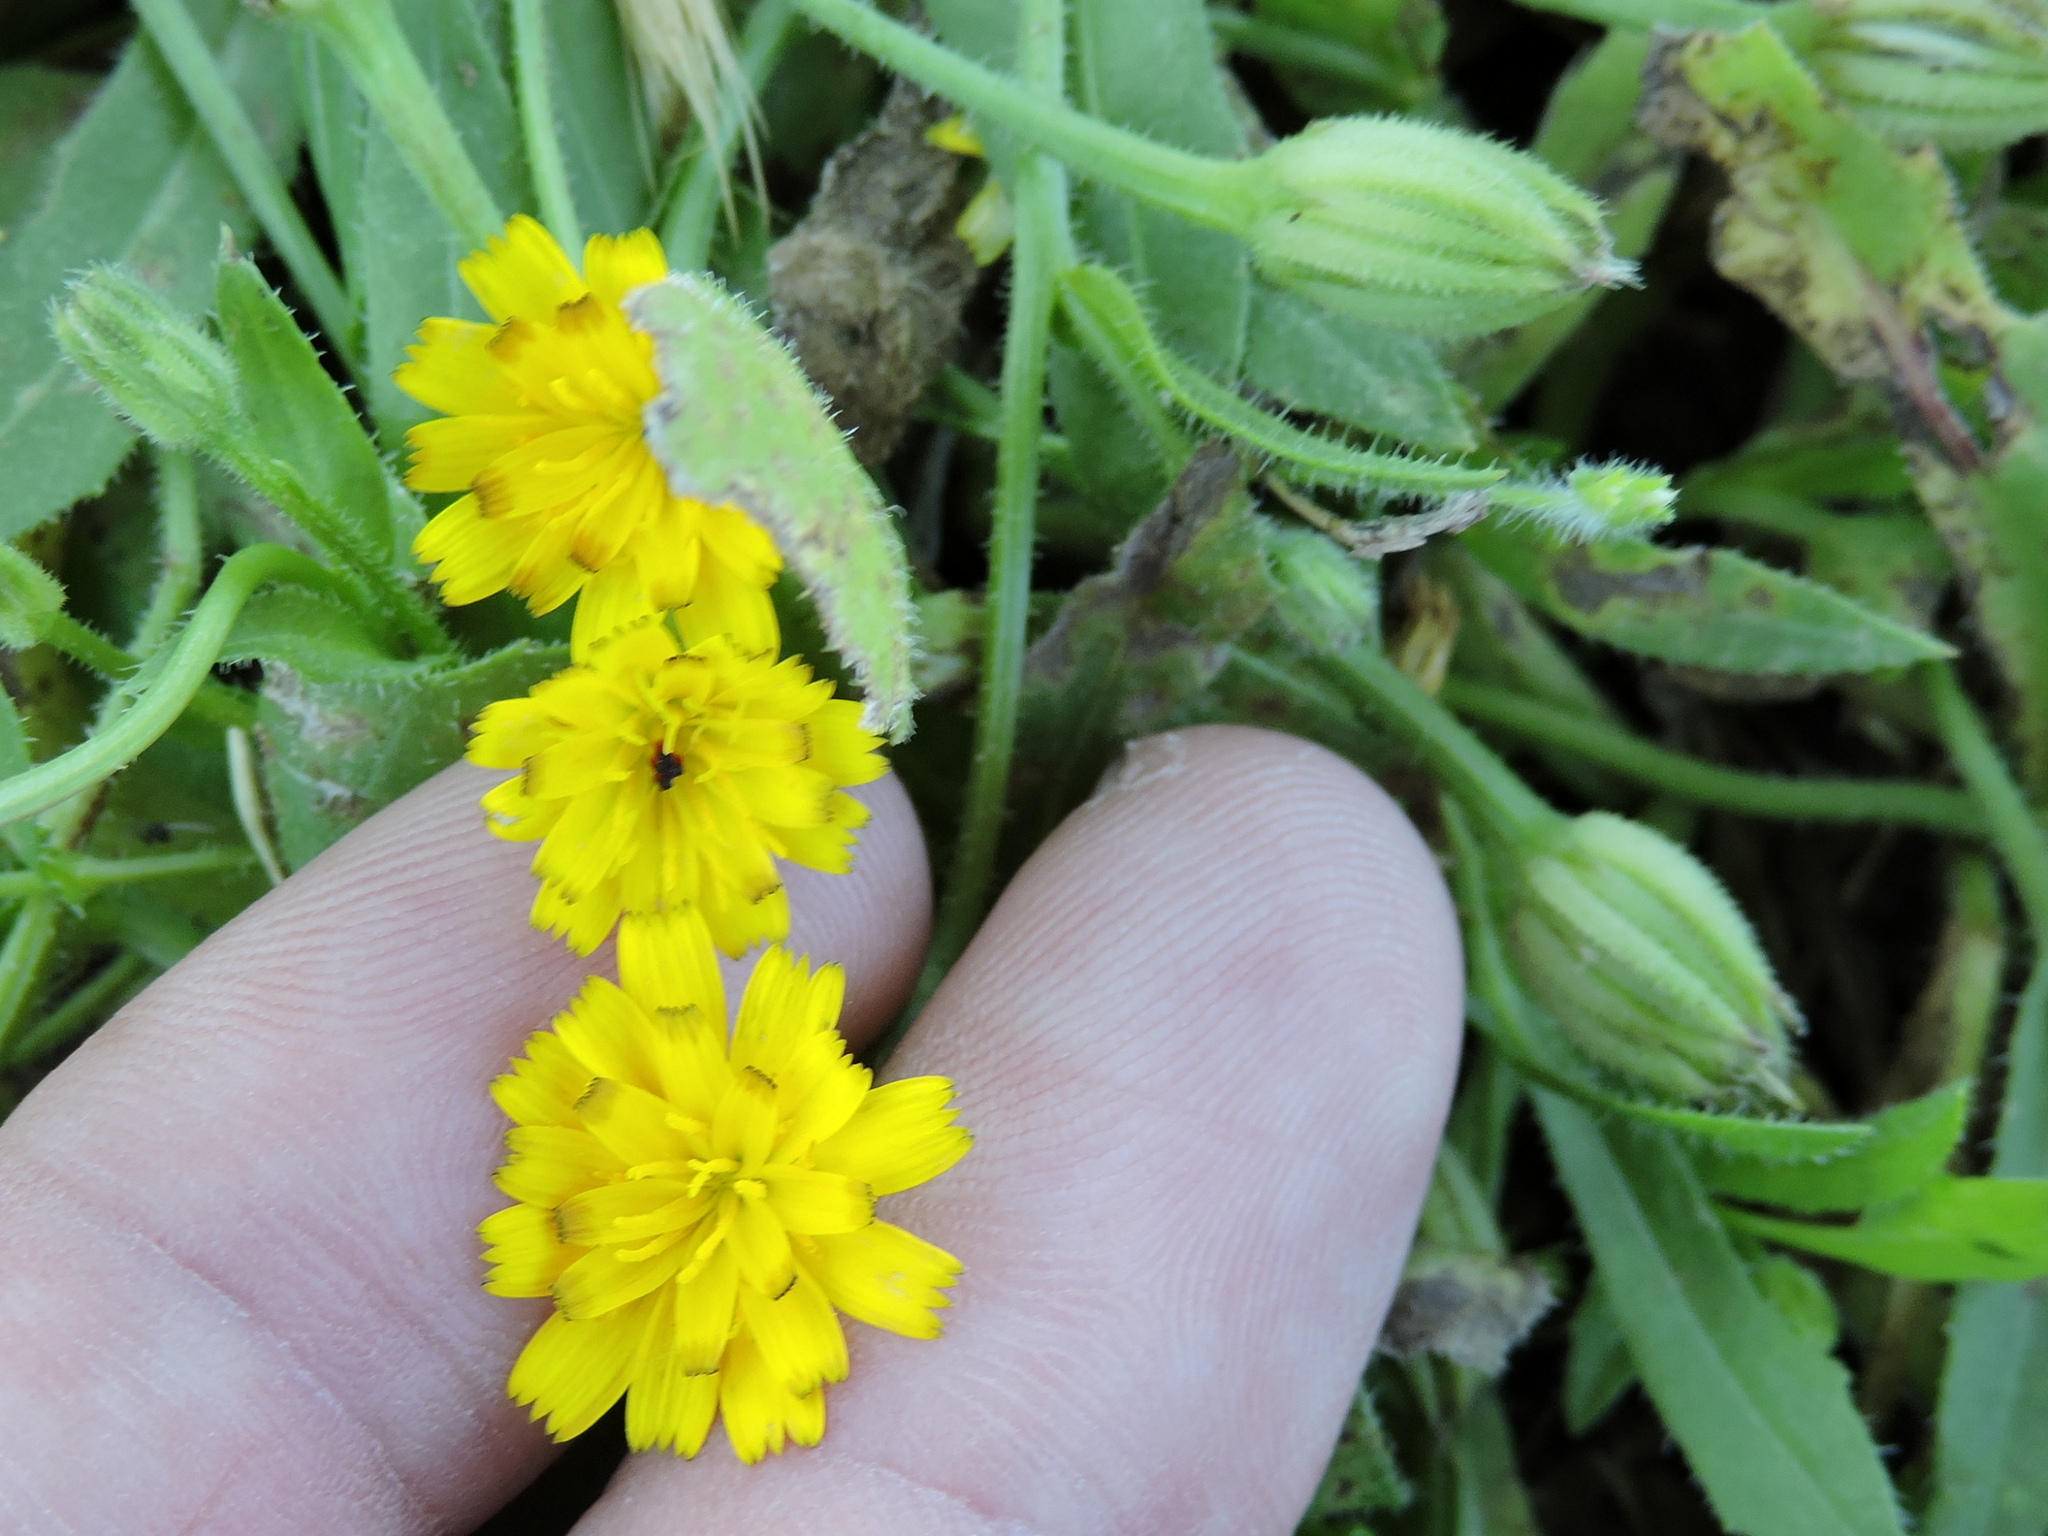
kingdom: Plantae
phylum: Tracheophyta
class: Magnoliopsida
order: Asterales
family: Asteraceae
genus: Hedypnois
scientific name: Hedypnois rhagadioloides
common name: Cretan weed
